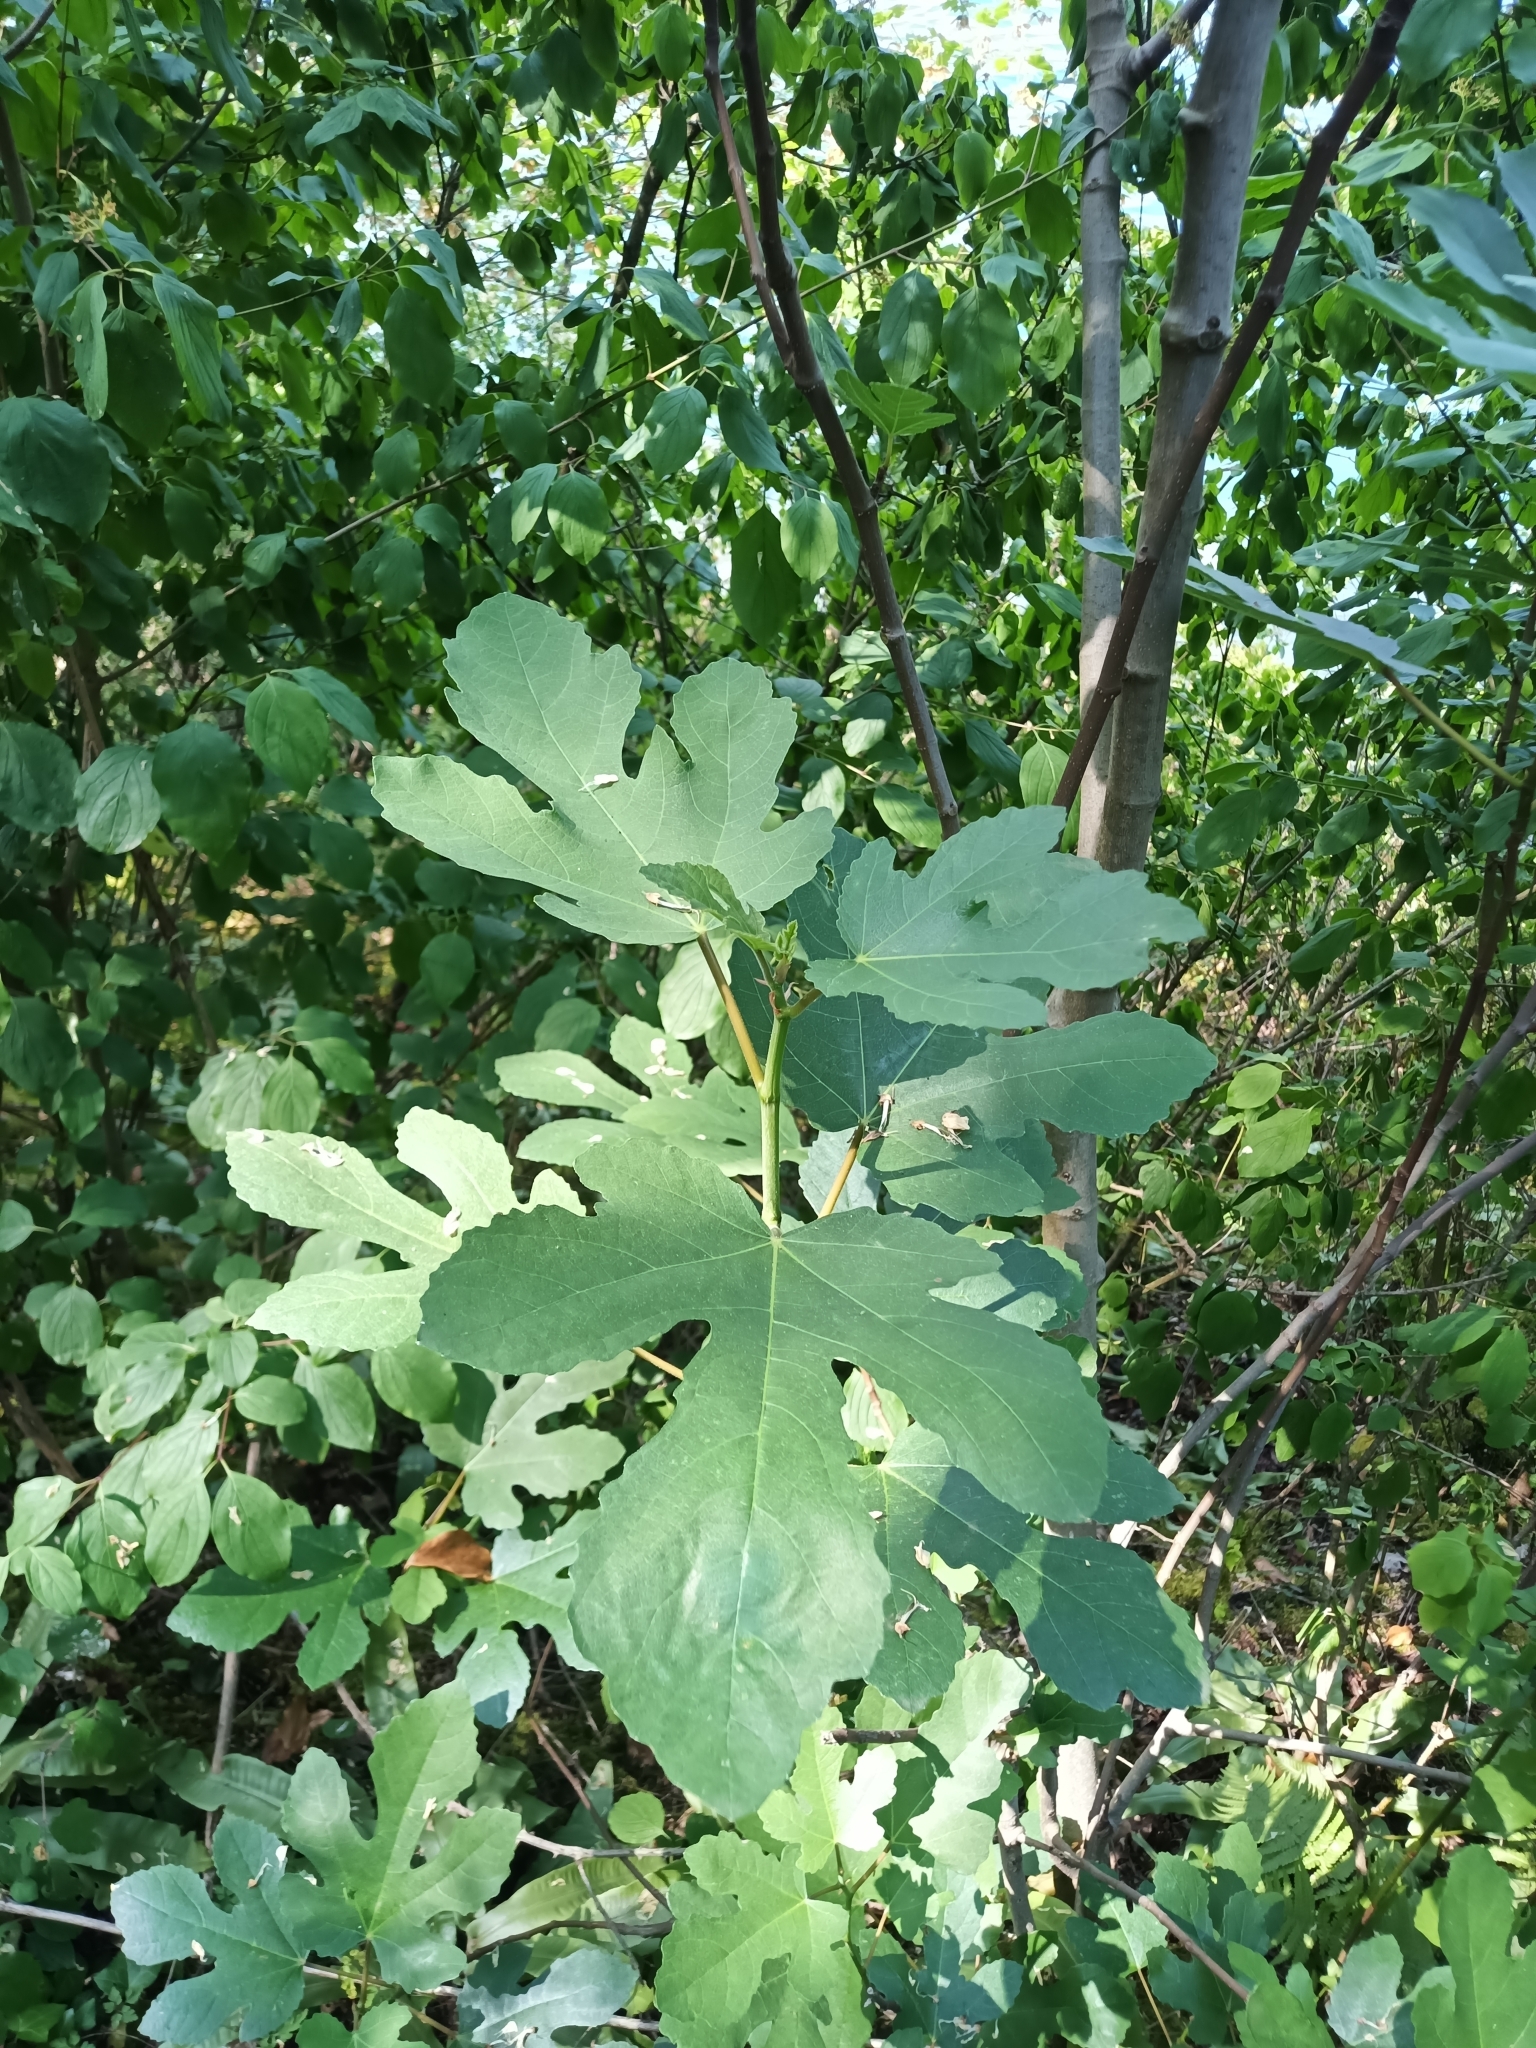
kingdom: Plantae
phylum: Tracheophyta
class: Magnoliopsida
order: Rosales
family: Moraceae
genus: Ficus
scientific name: Ficus carica
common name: Fig
